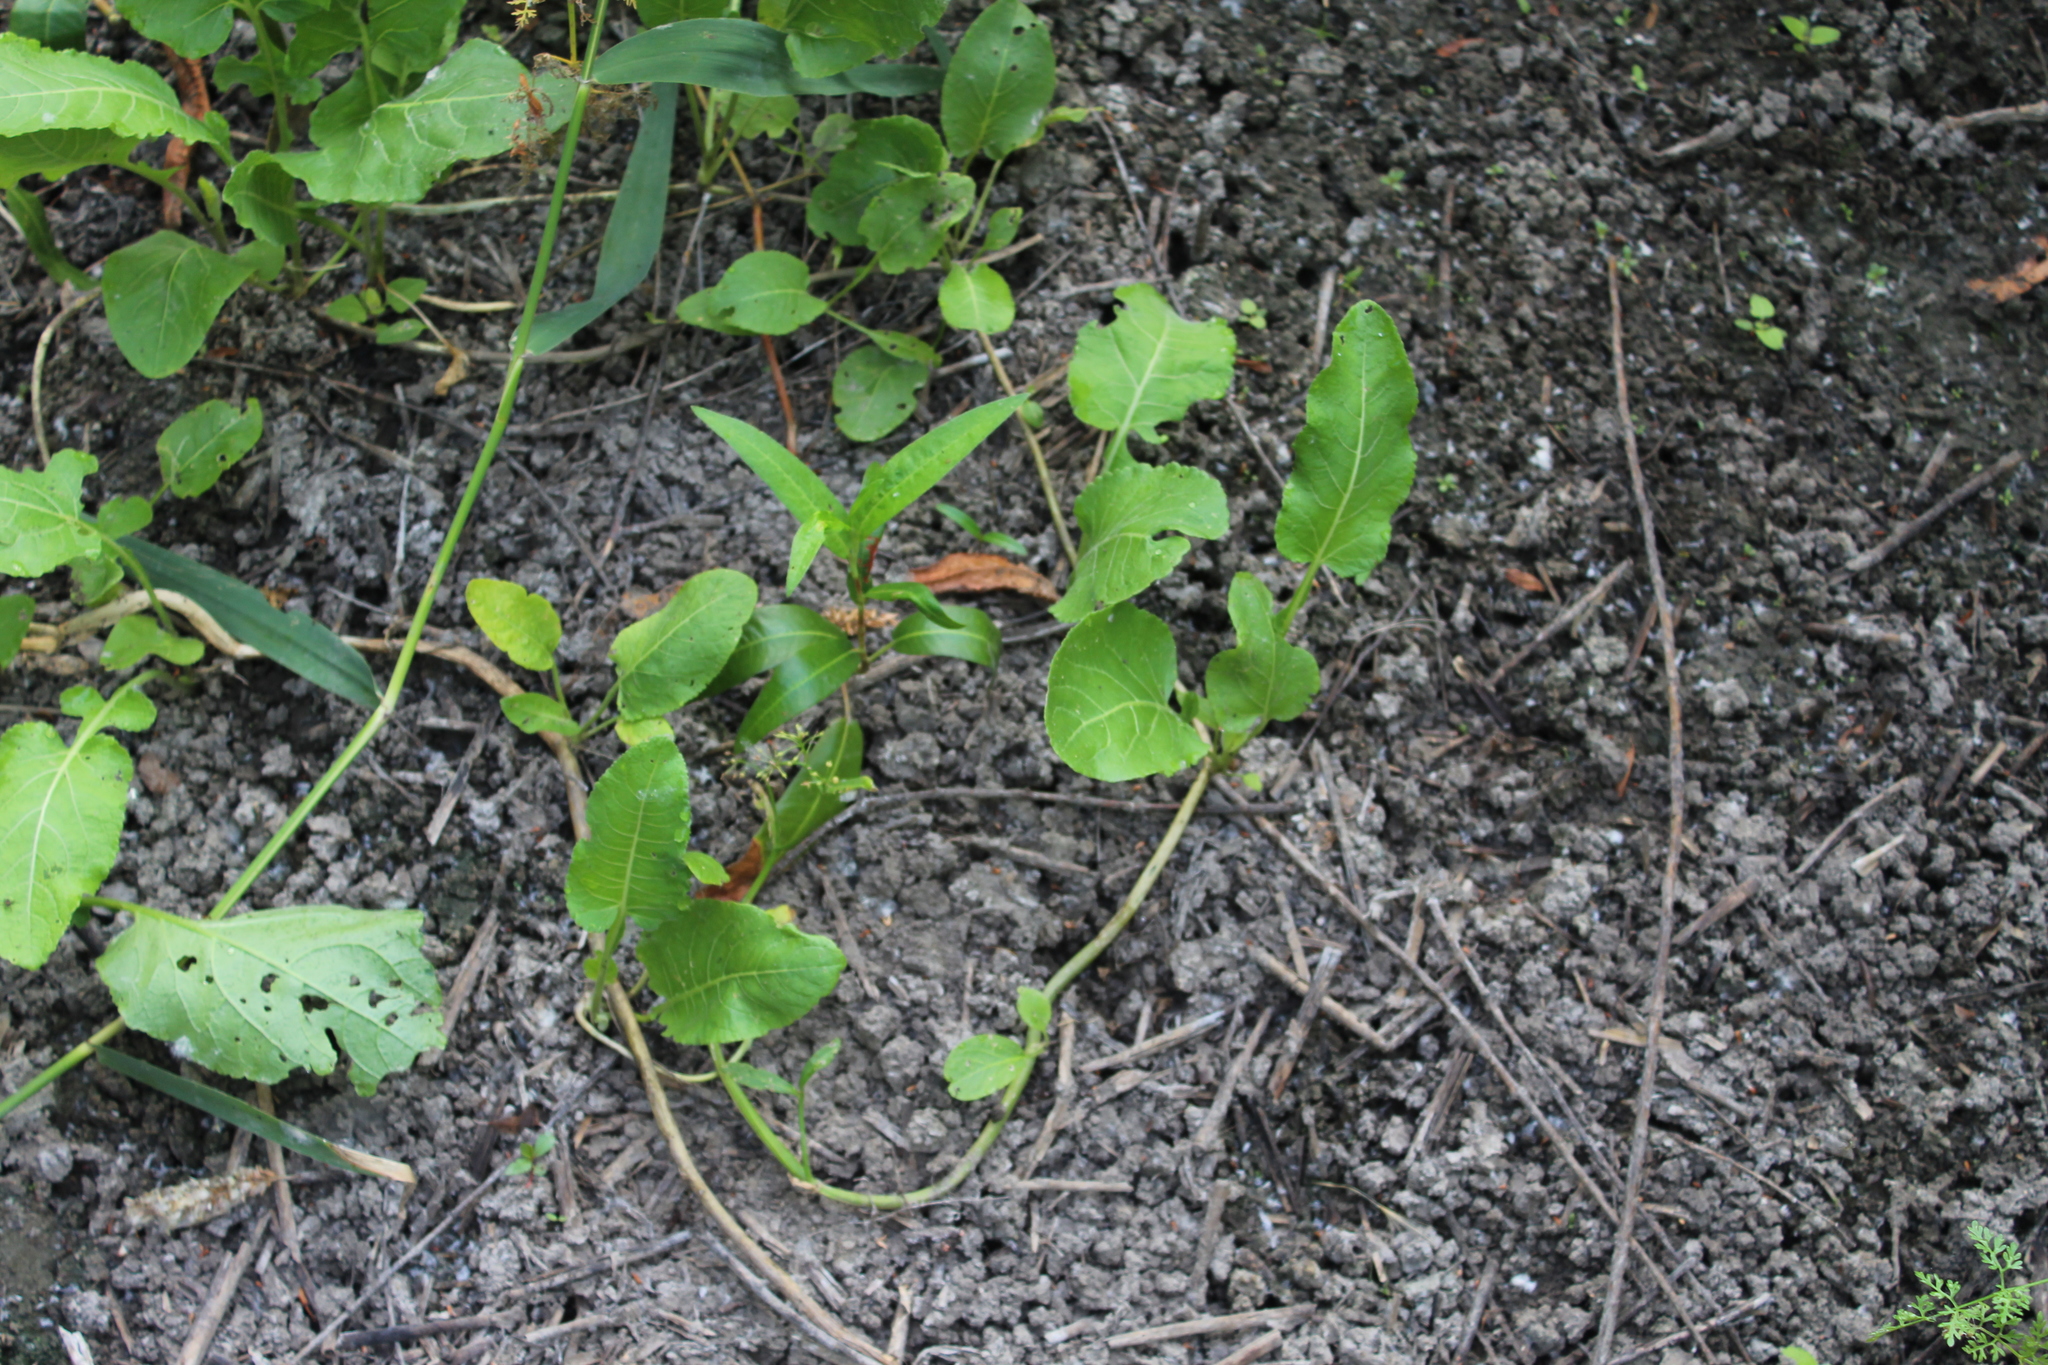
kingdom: Plantae
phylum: Tracheophyta
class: Magnoliopsida
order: Brassicales
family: Brassicaceae
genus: Rorippa
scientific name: Rorippa amphibia
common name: Great yellow-cress
